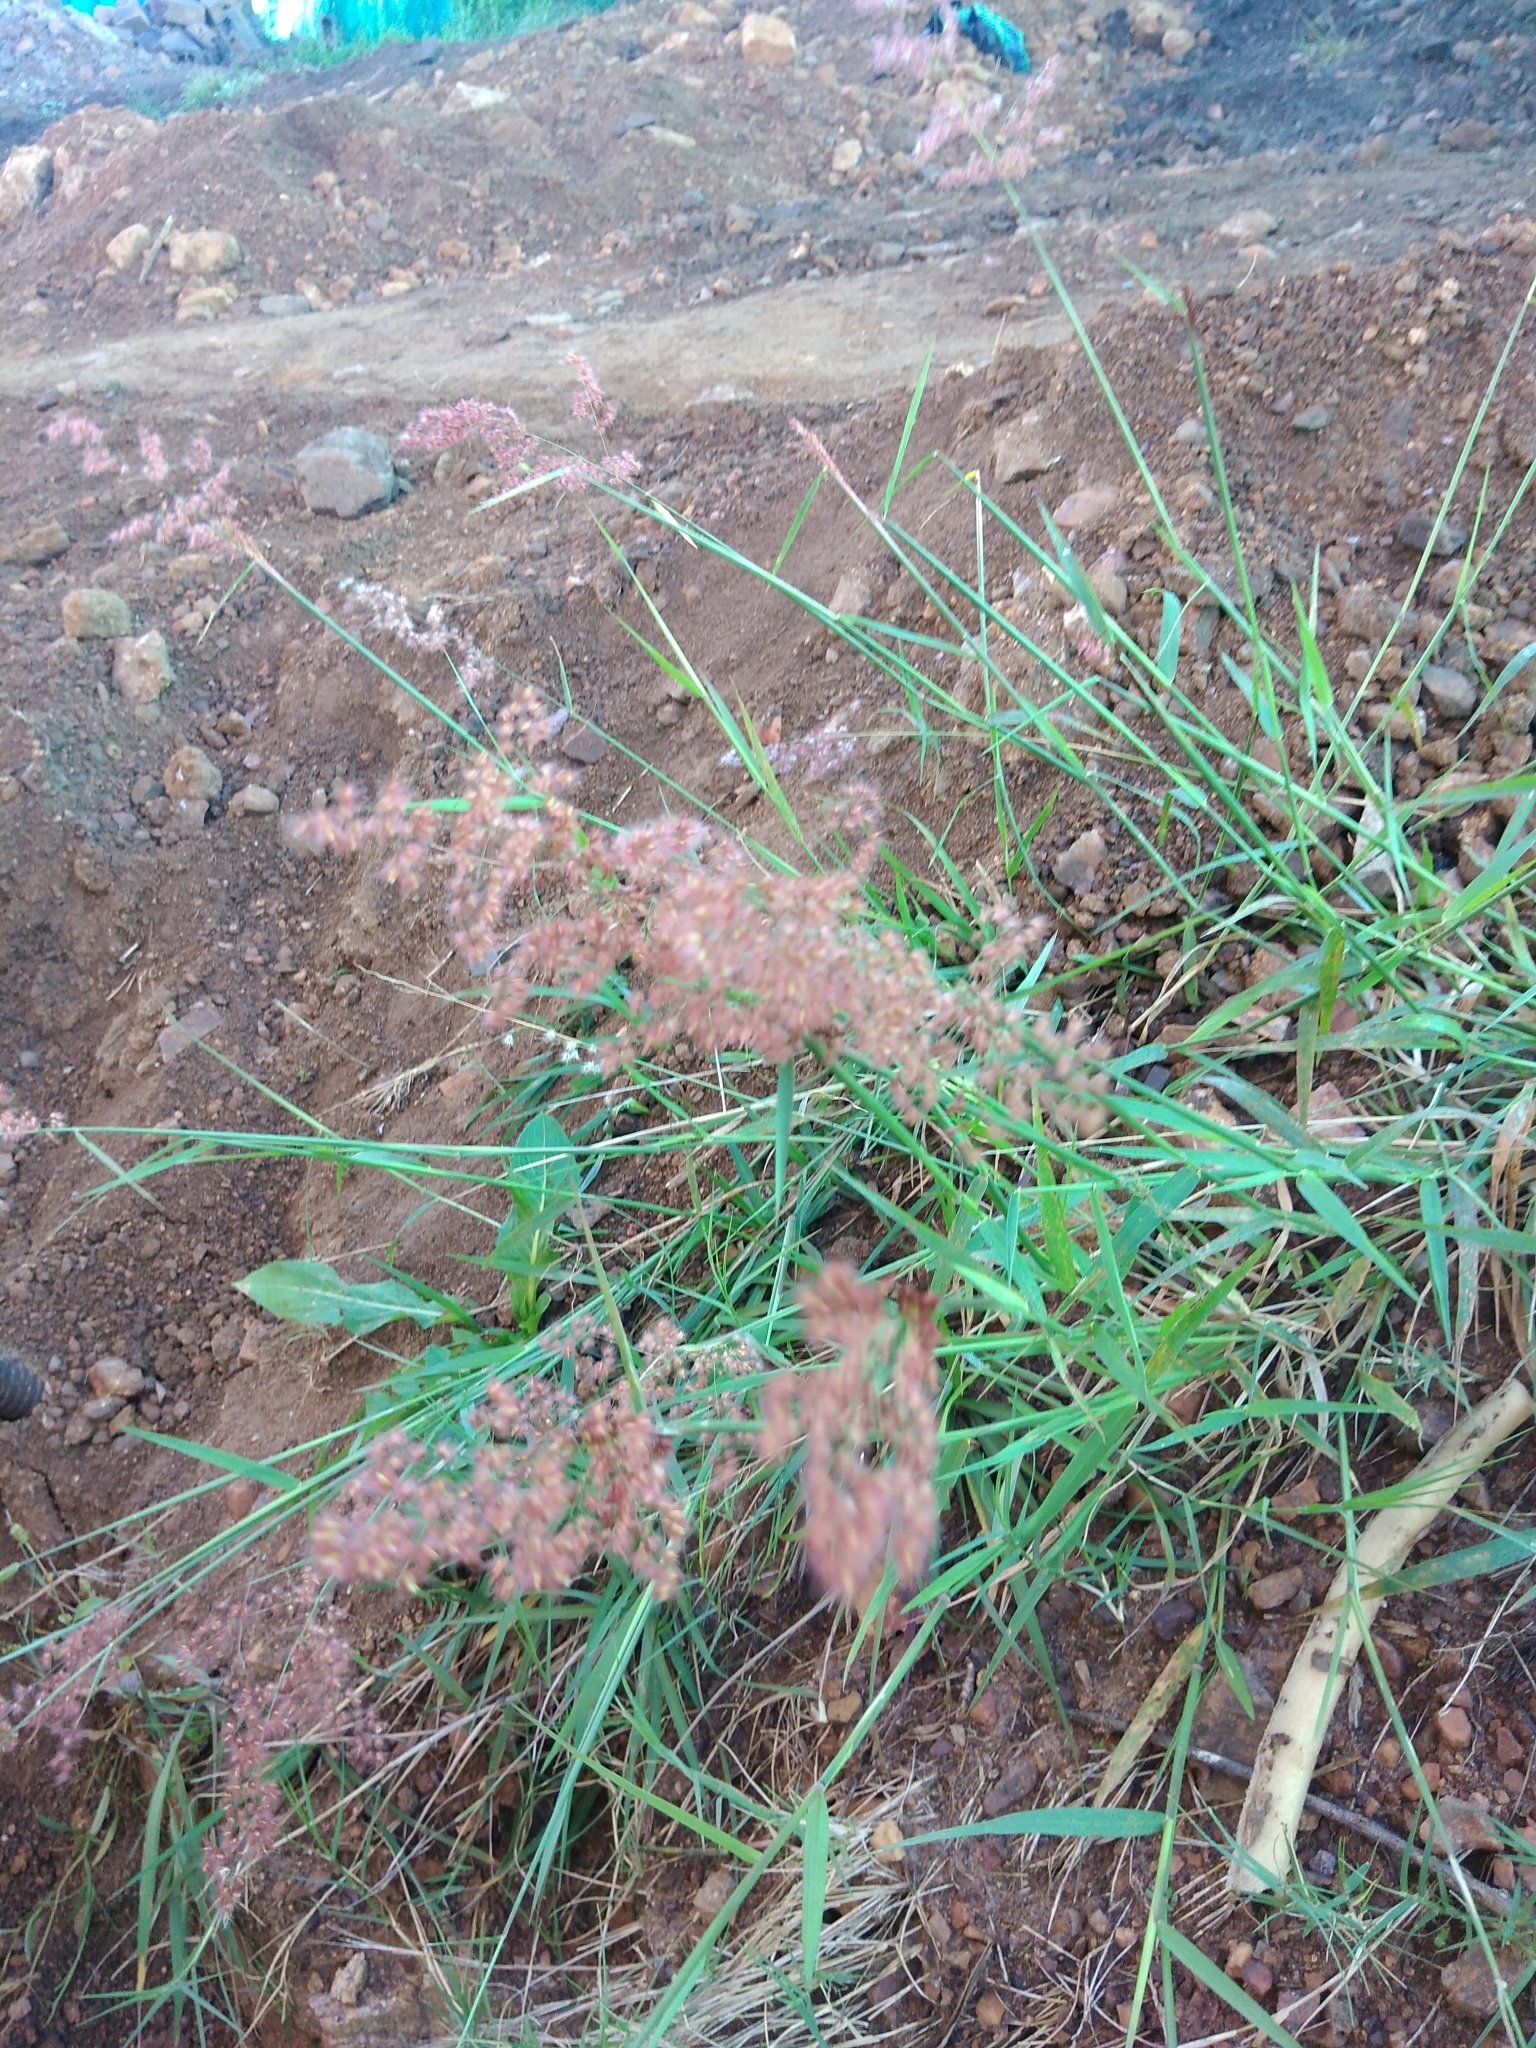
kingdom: Plantae
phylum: Tracheophyta
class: Liliopsida
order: Poales
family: Poaceae
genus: Melinis
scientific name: Melinis repens
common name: Rose natal grass
